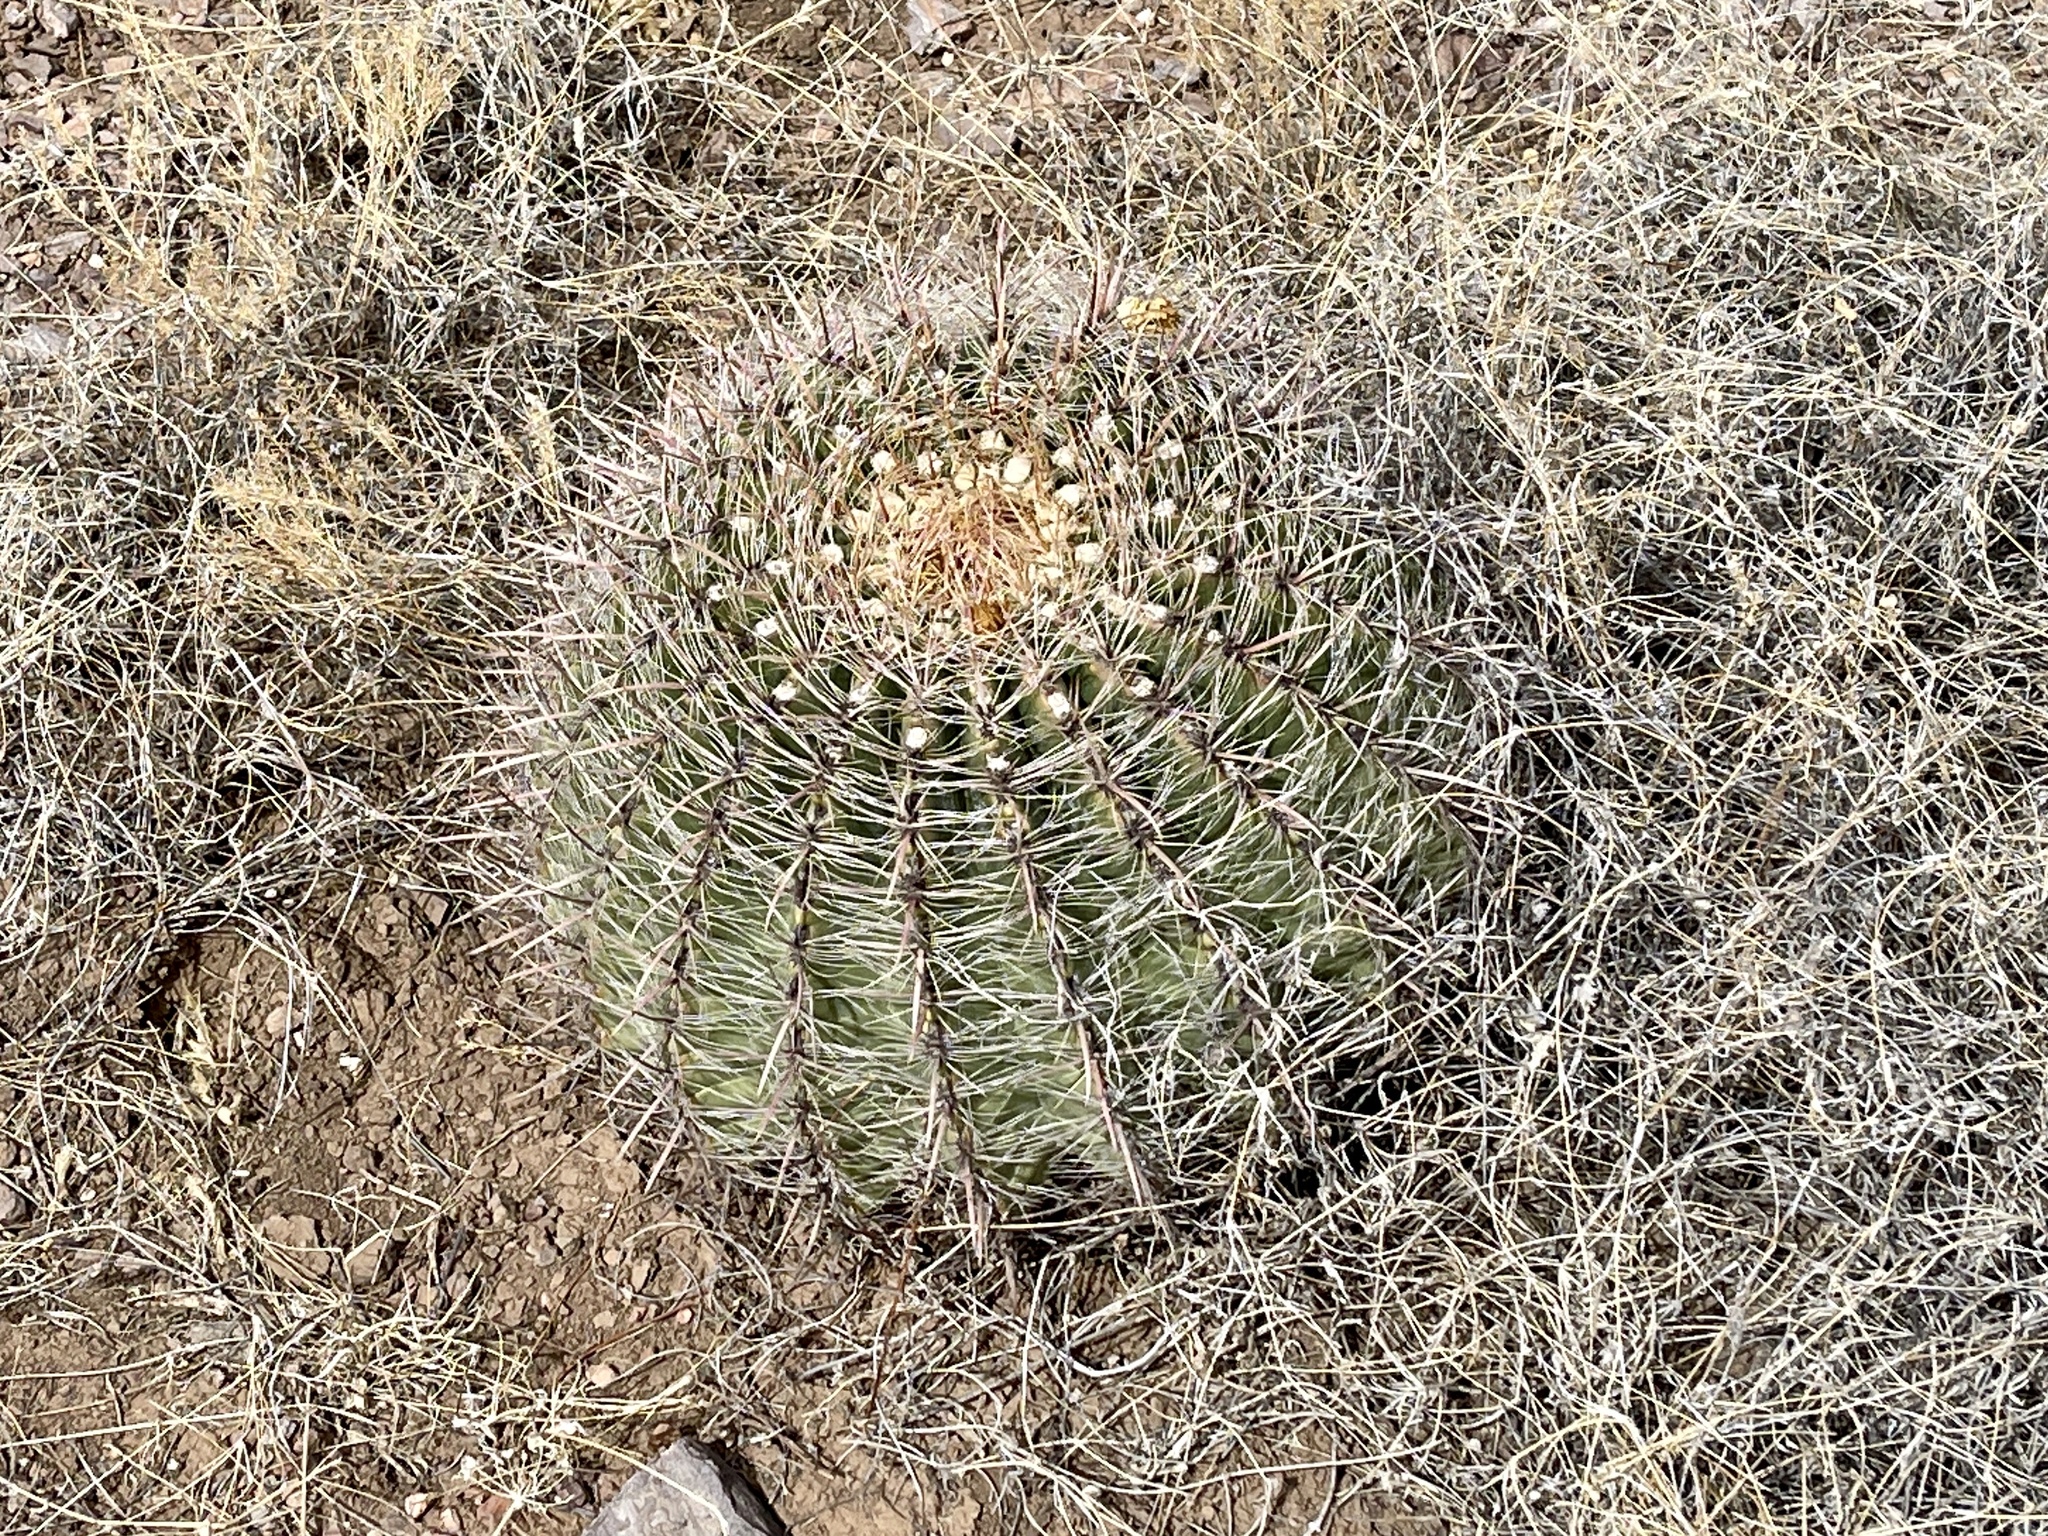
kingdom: Plantae
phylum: Tracheophyta
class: Magnoliopsida
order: Caryophyllales
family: Cactaceae
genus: Ferocactus
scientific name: Ferocactus wislizeni
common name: Candy barrel cactus
